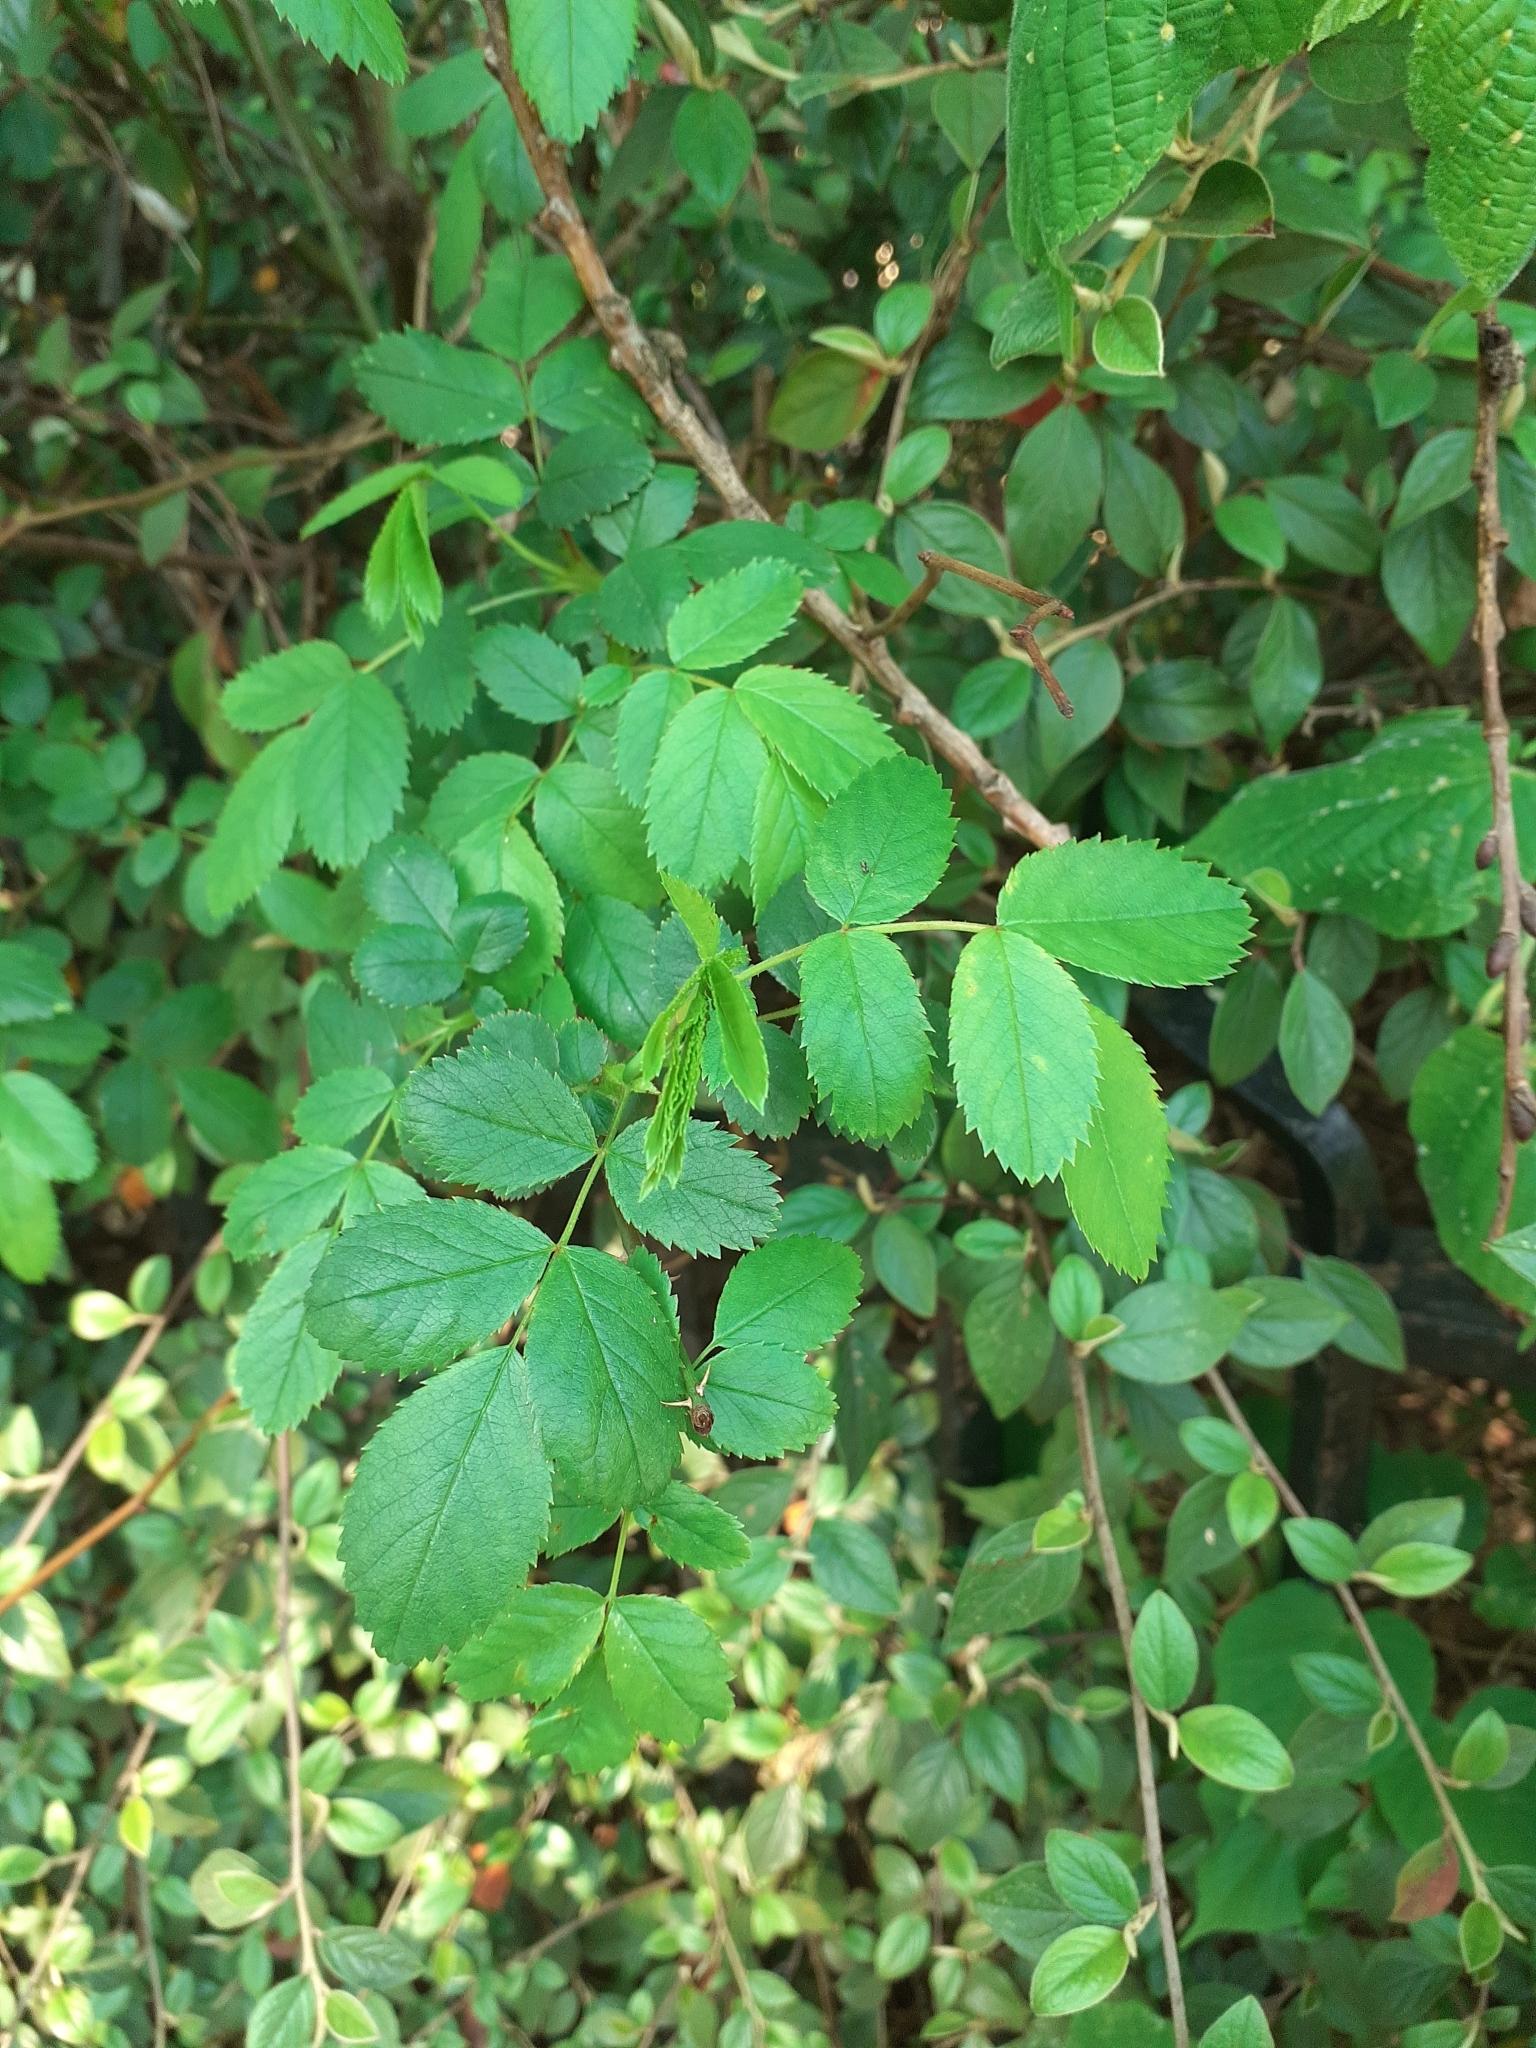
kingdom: Plantae
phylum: Tracheophyta
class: Magnoliopsida
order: Rosales
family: Rosaceae
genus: Rosa
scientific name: Rosa canina
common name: Dog rose
